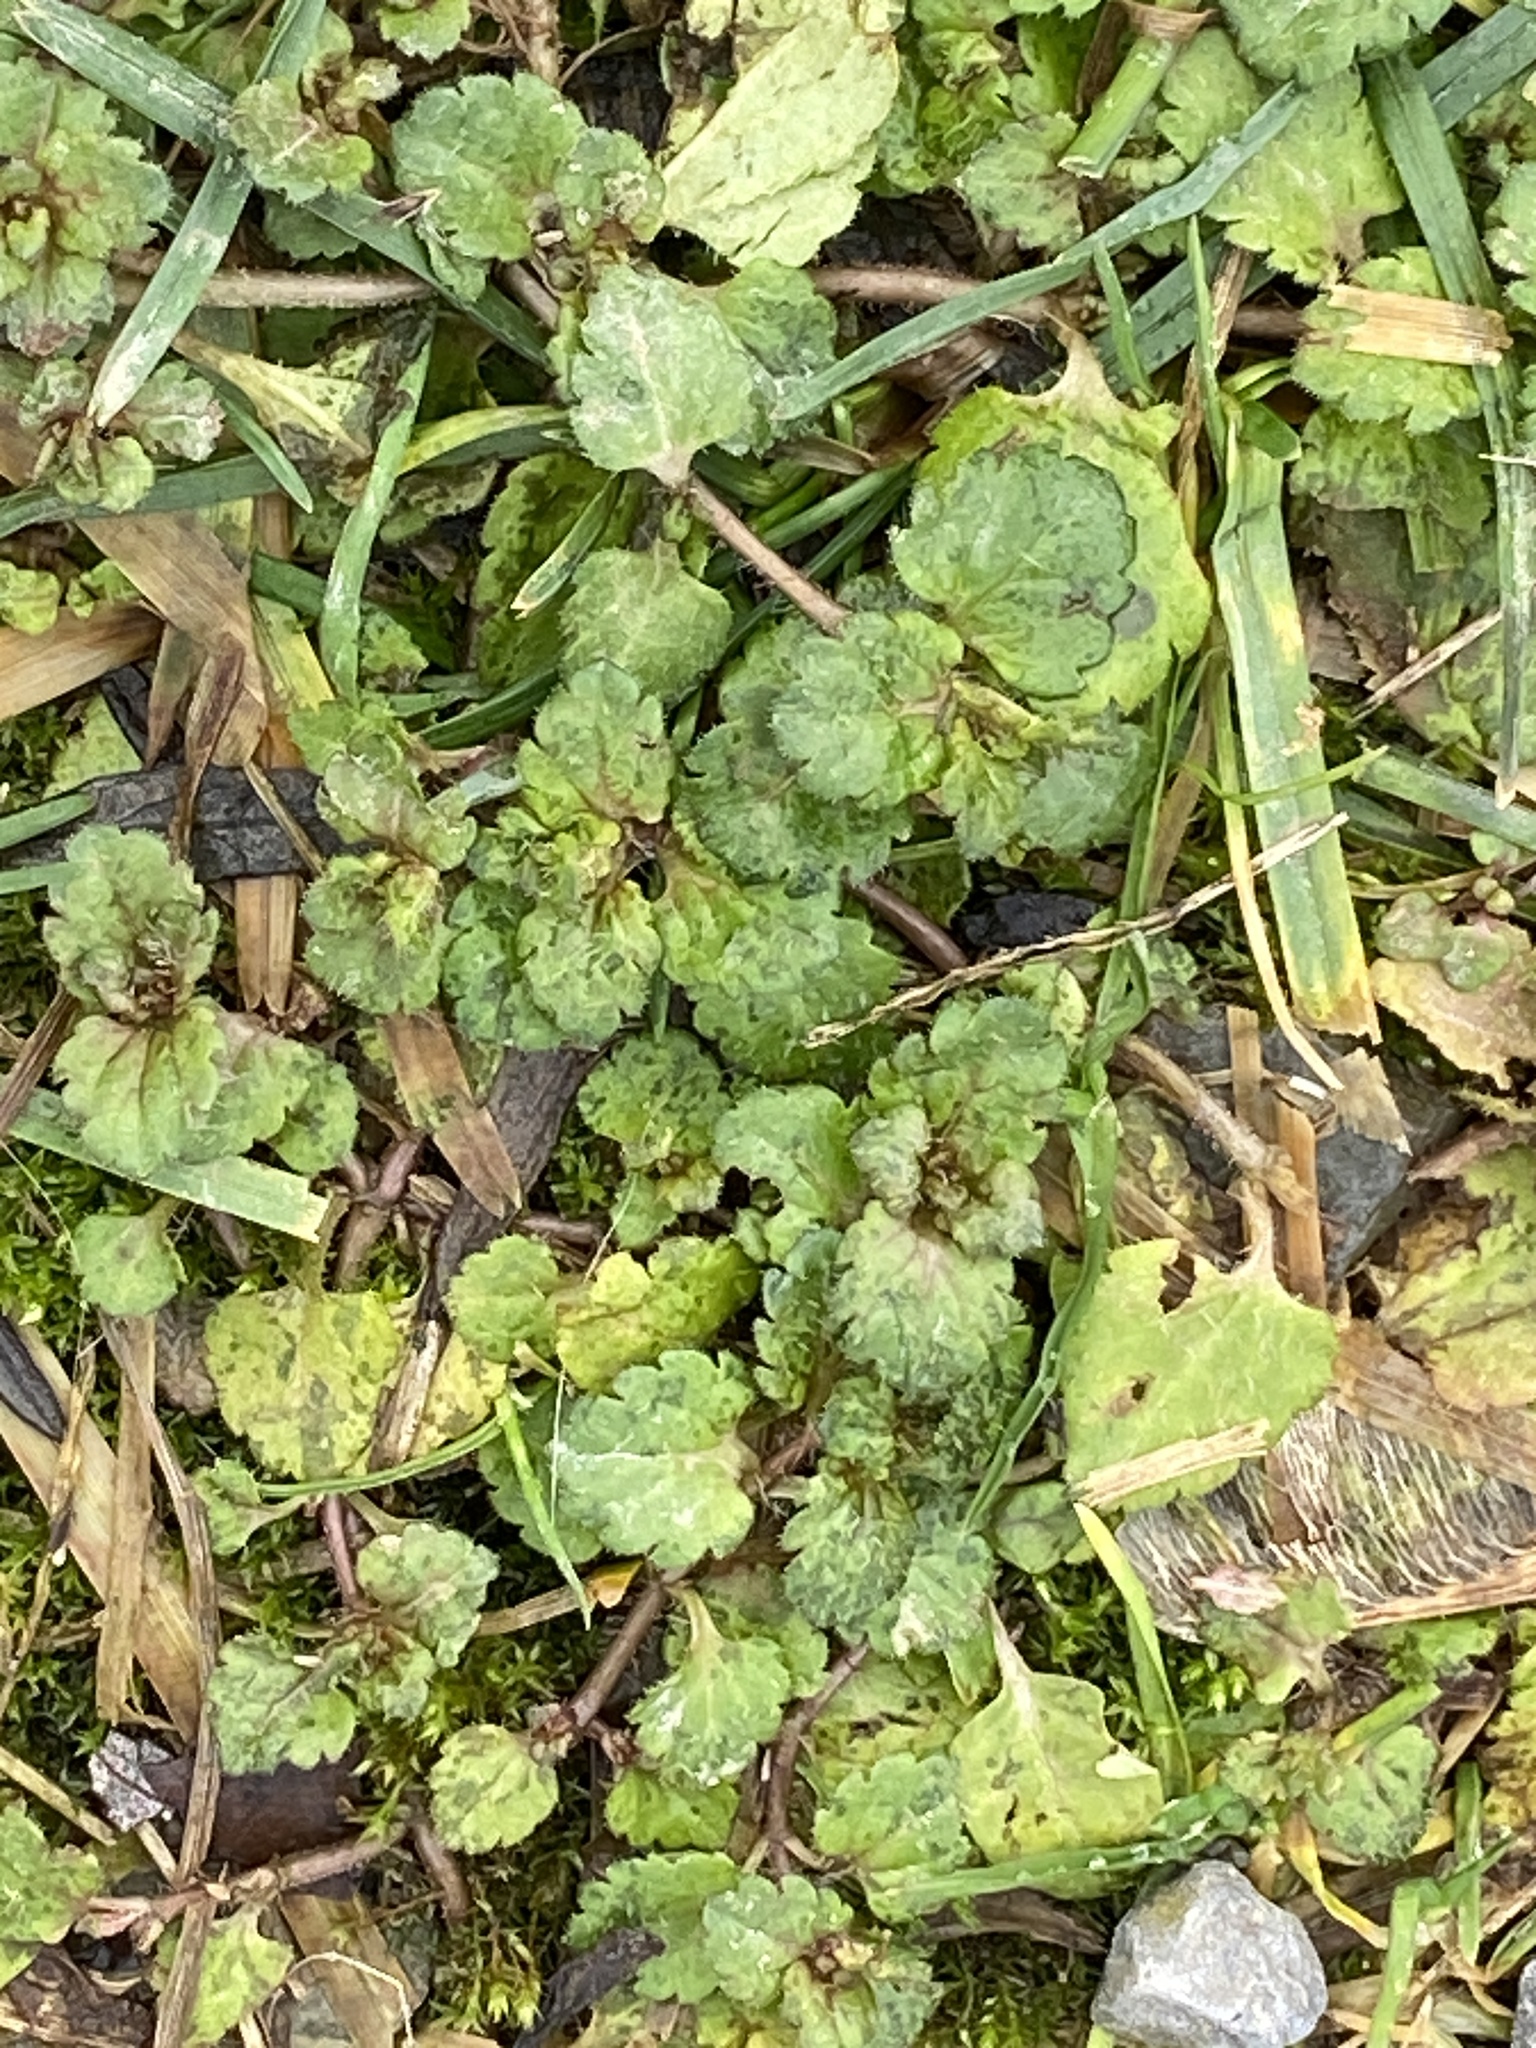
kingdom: Plantae
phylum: Tracheophyta
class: Magnoliopsida
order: Lamiales
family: Plantaginaceae
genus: Veronica
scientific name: Veronica persica
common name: Common field-speedwell
